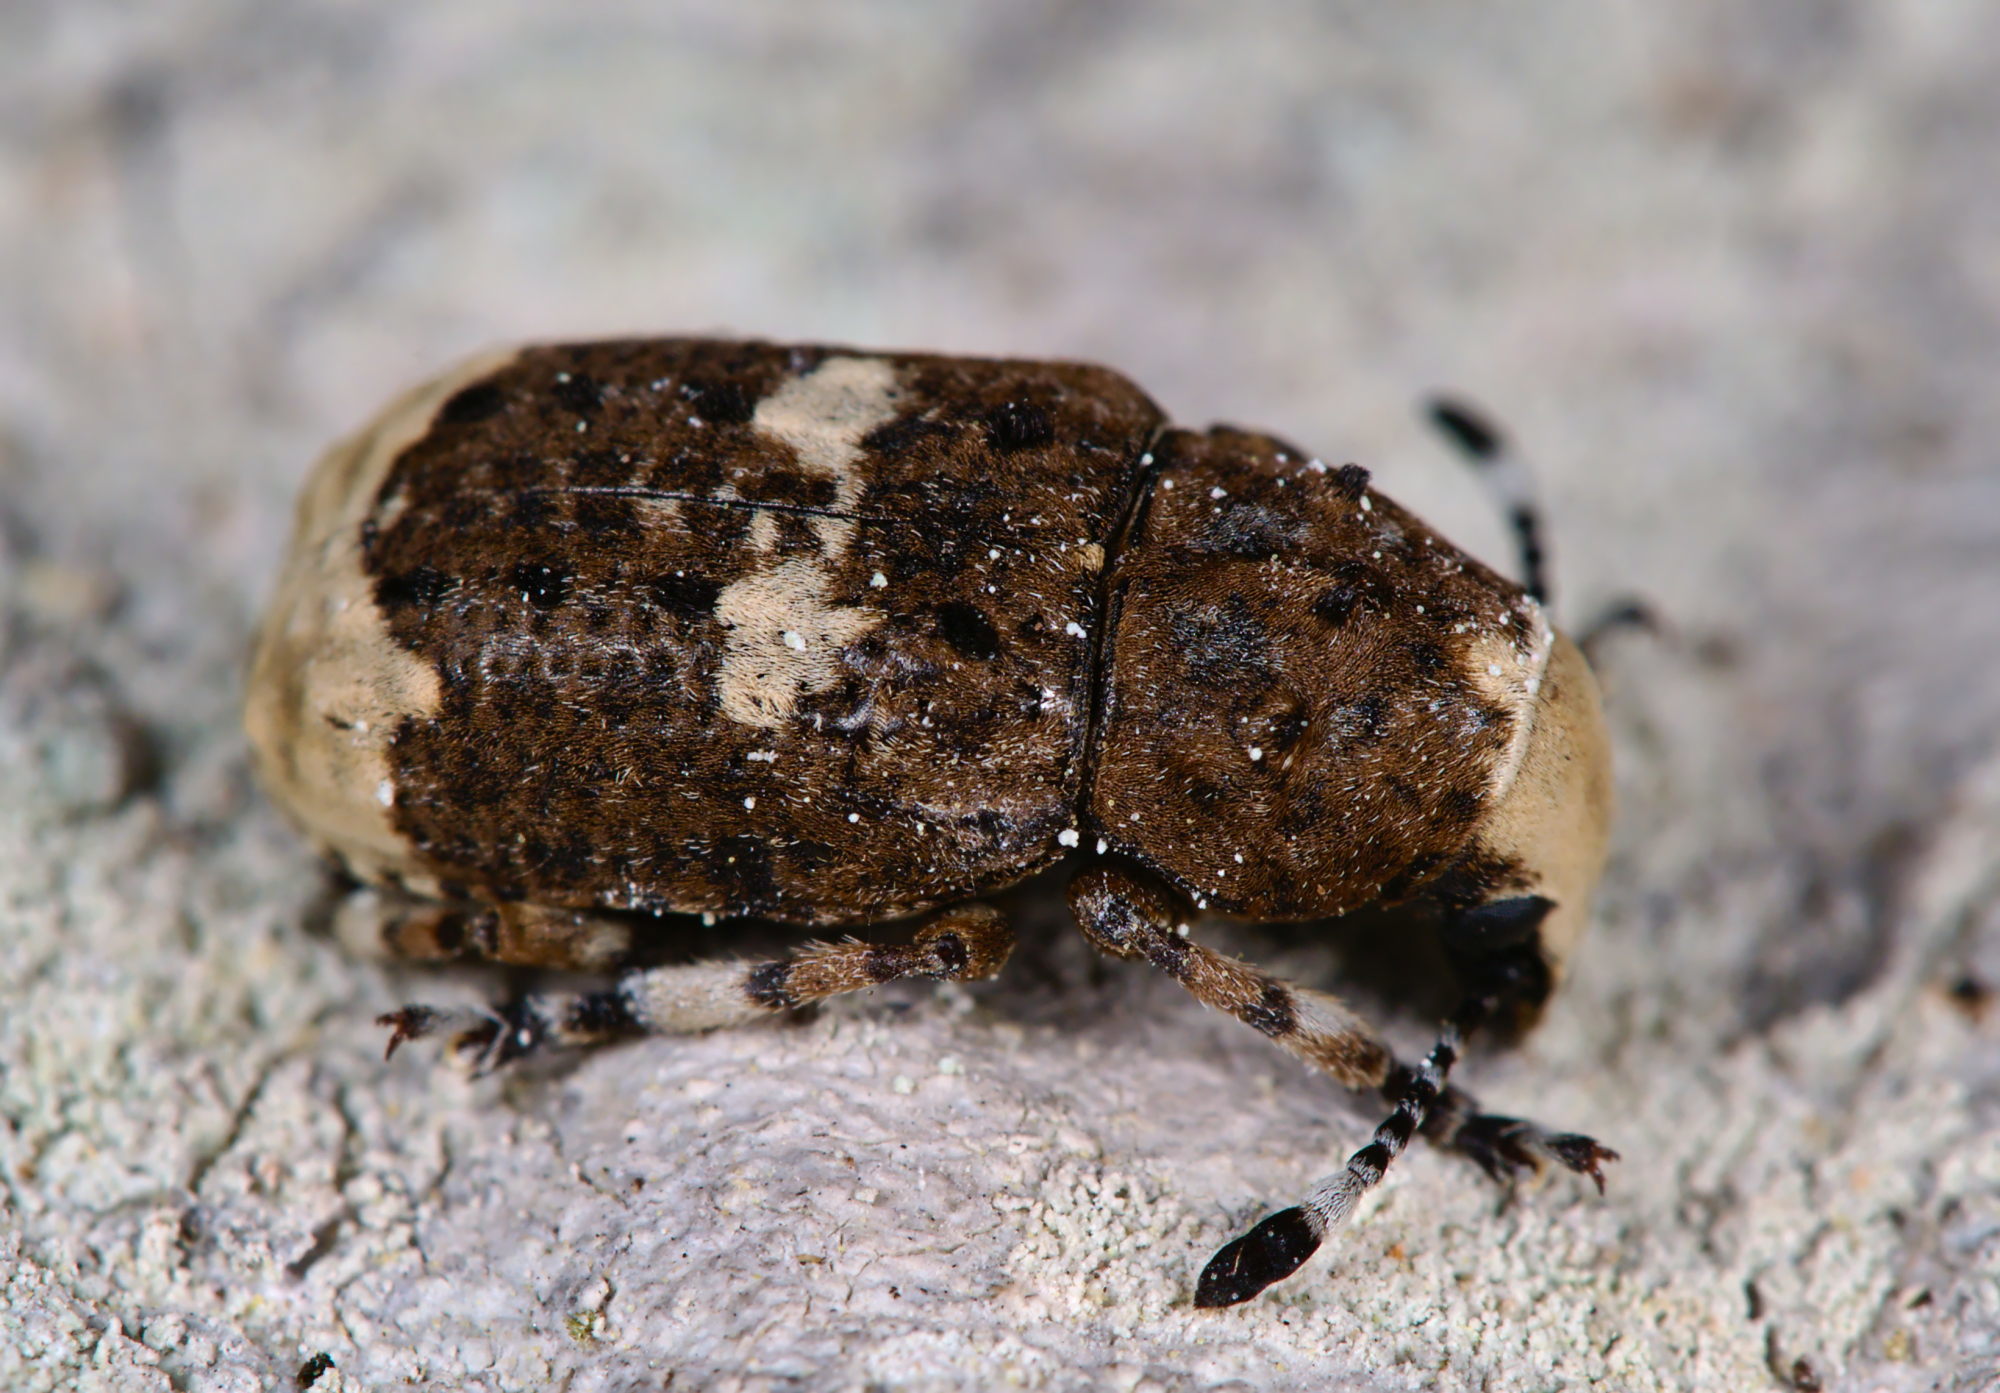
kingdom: Animalia
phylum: Arthropoda
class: Insecta
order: Coleoptera
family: Anthribidae
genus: Platystomos
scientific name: Platystomos albinus
